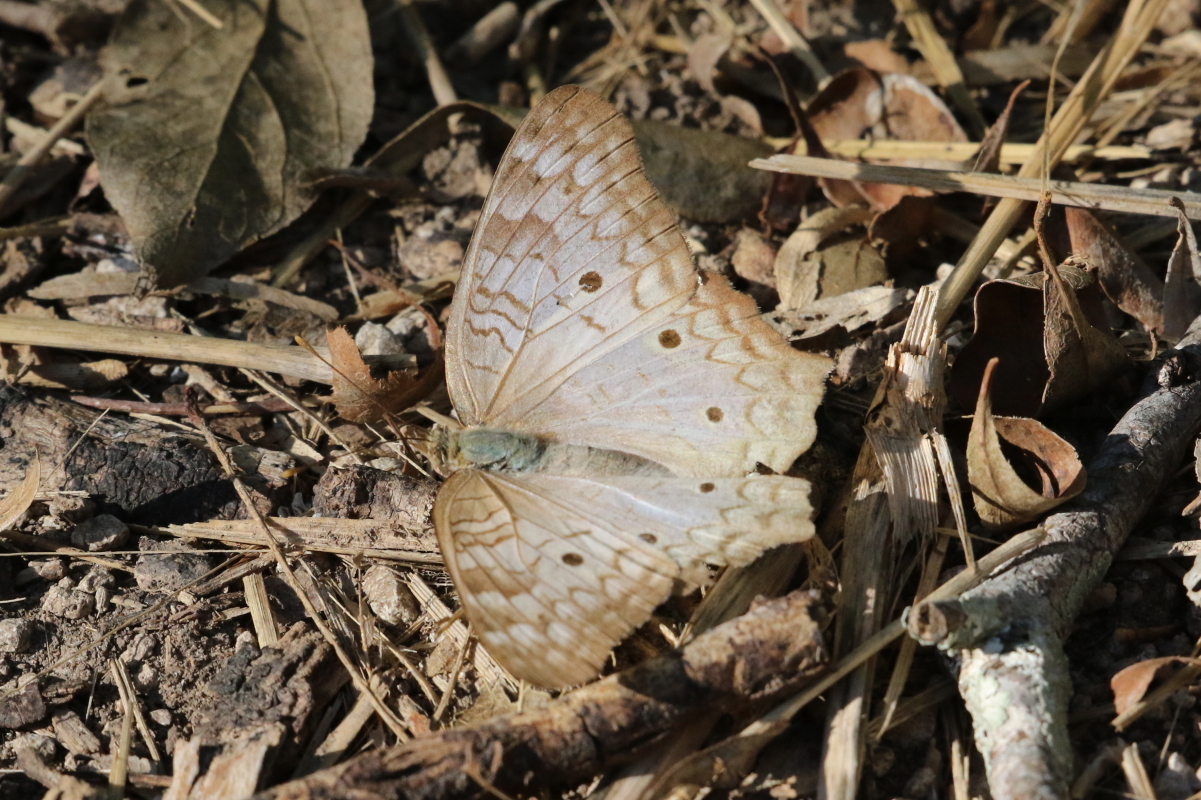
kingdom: Animalia
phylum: Arthropoda
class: Insecta
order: Lepidoptera
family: Nymphalidae
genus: Anartia
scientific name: Anartia jatrophae
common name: White peacock
